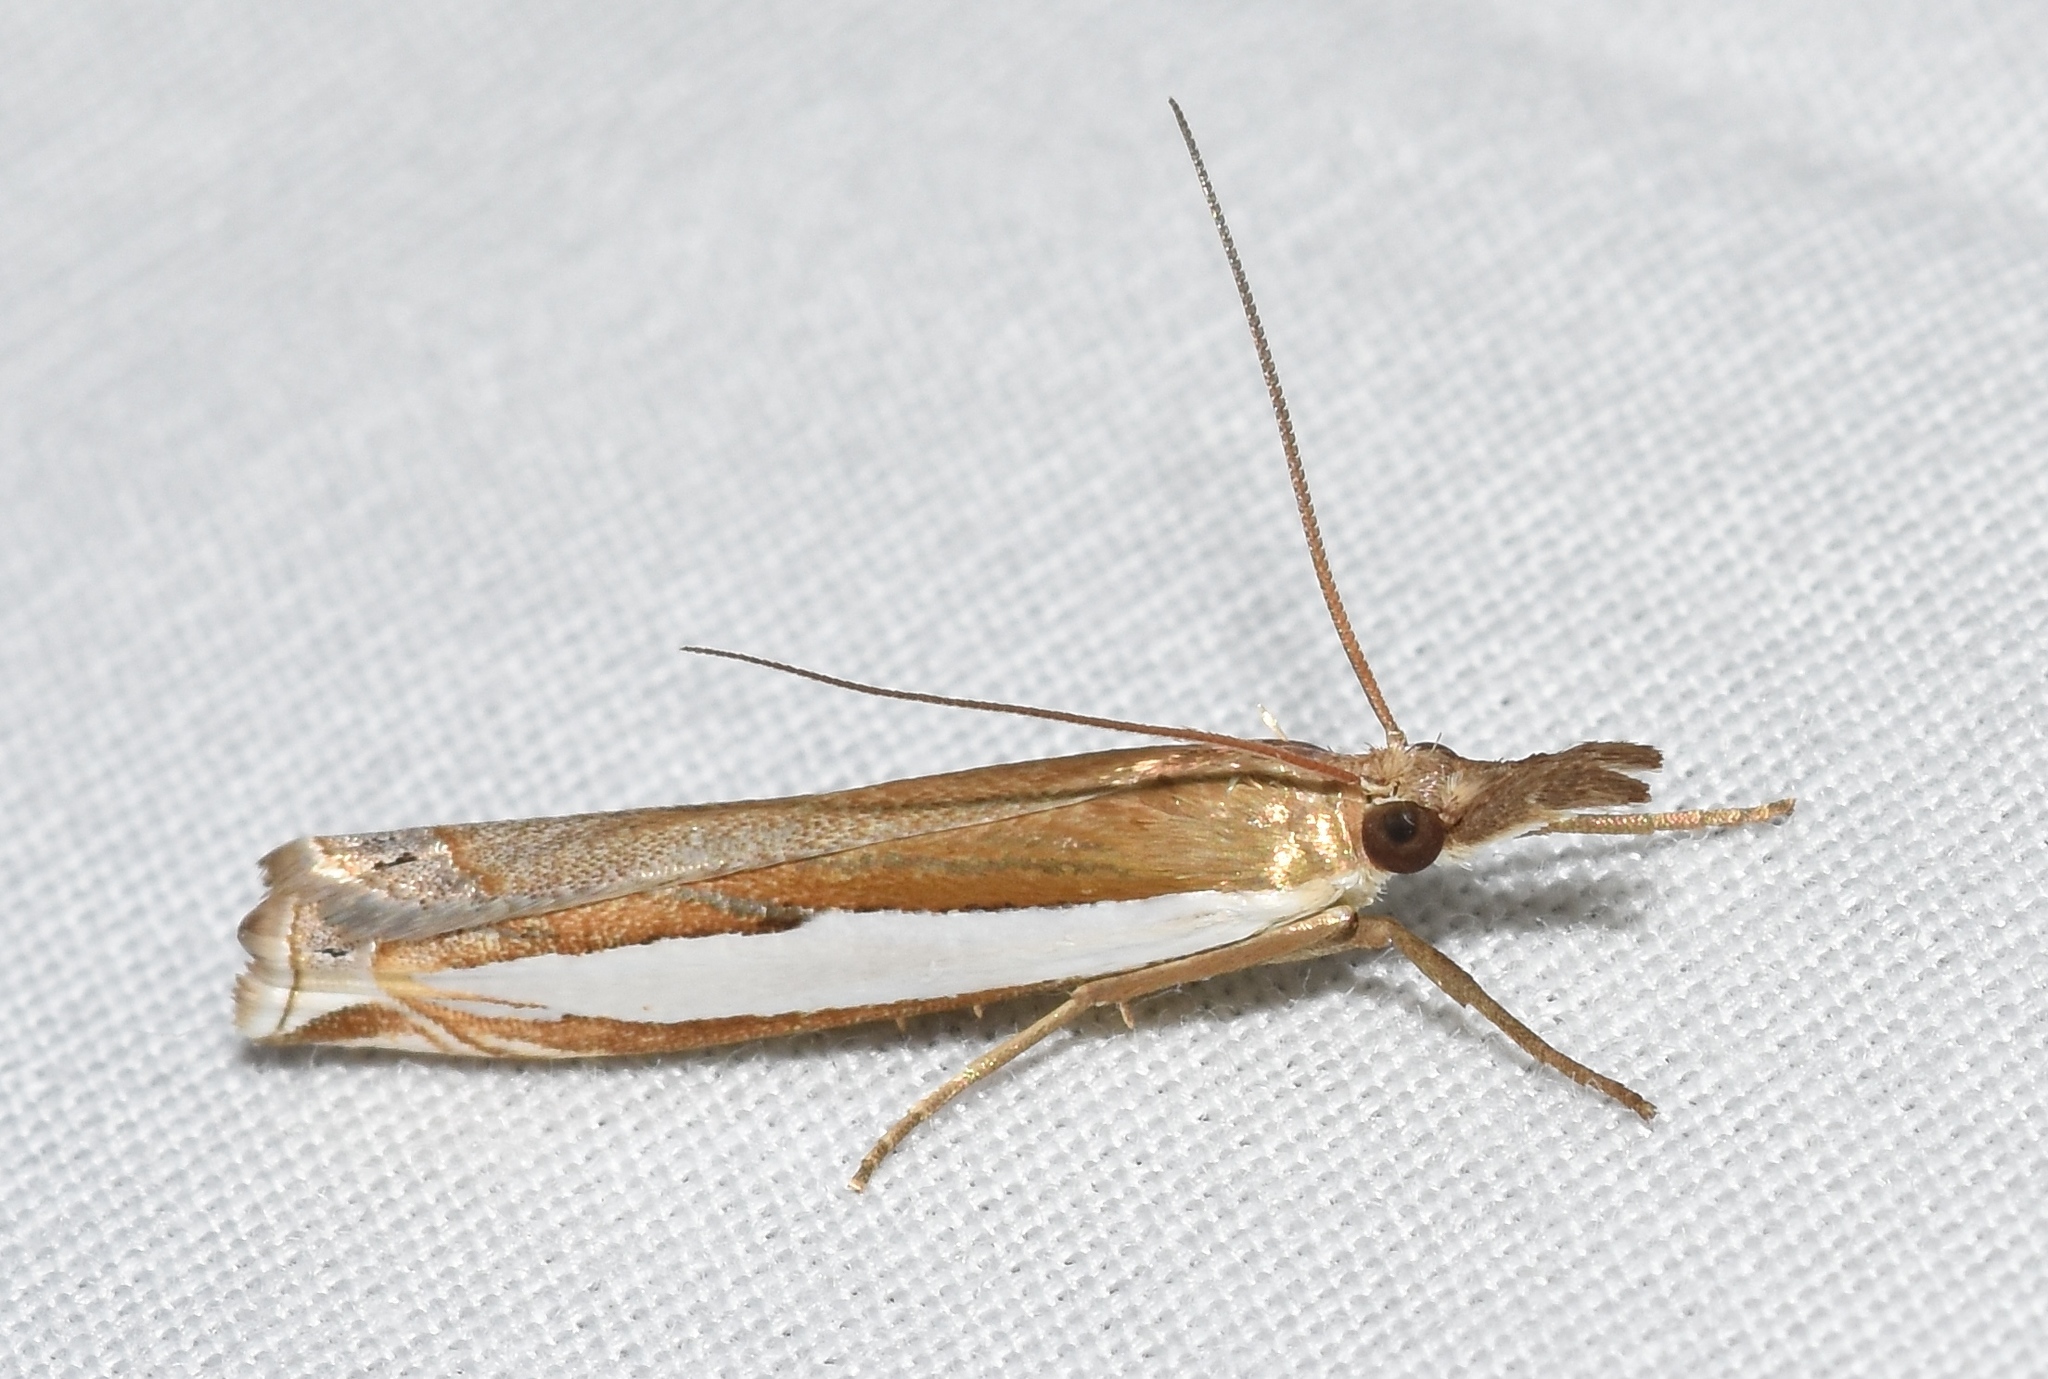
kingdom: Animalia
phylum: Arthropoda
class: Insecta
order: Lepidoptera
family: Crambidae
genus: Crambus
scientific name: Crambus leachellus
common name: Leach's grass-veneer
